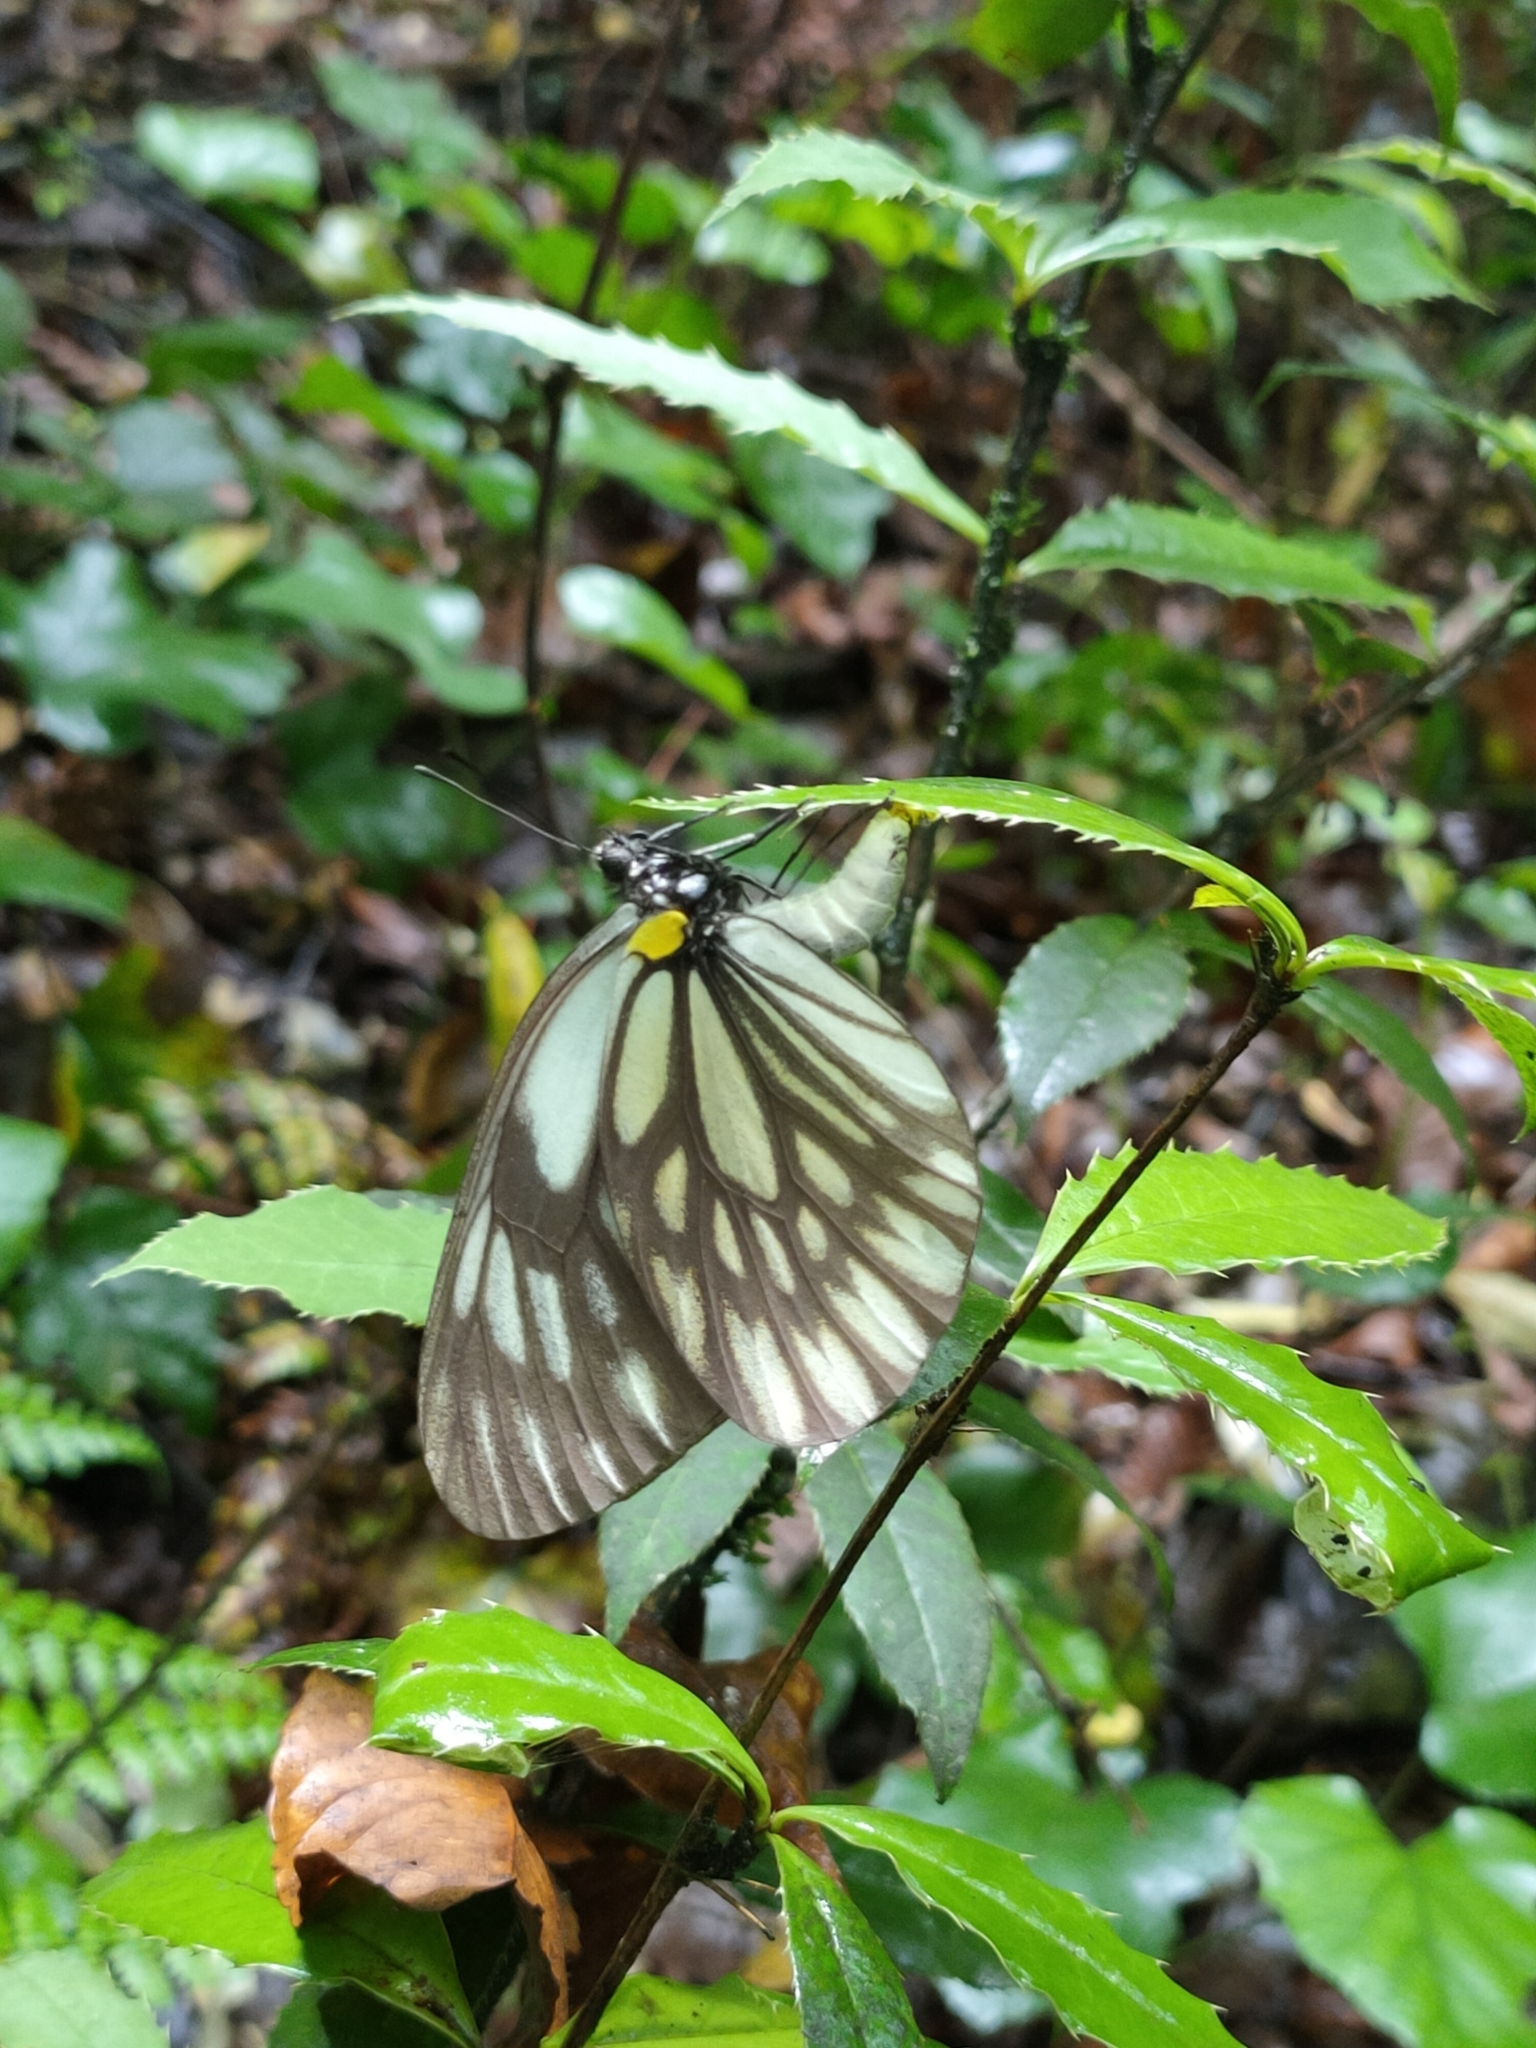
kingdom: Animalia
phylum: Arthropoda
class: Insecta
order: Lepidoptera
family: Pieridae
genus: Aporia
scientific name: Aporia kanekoi
